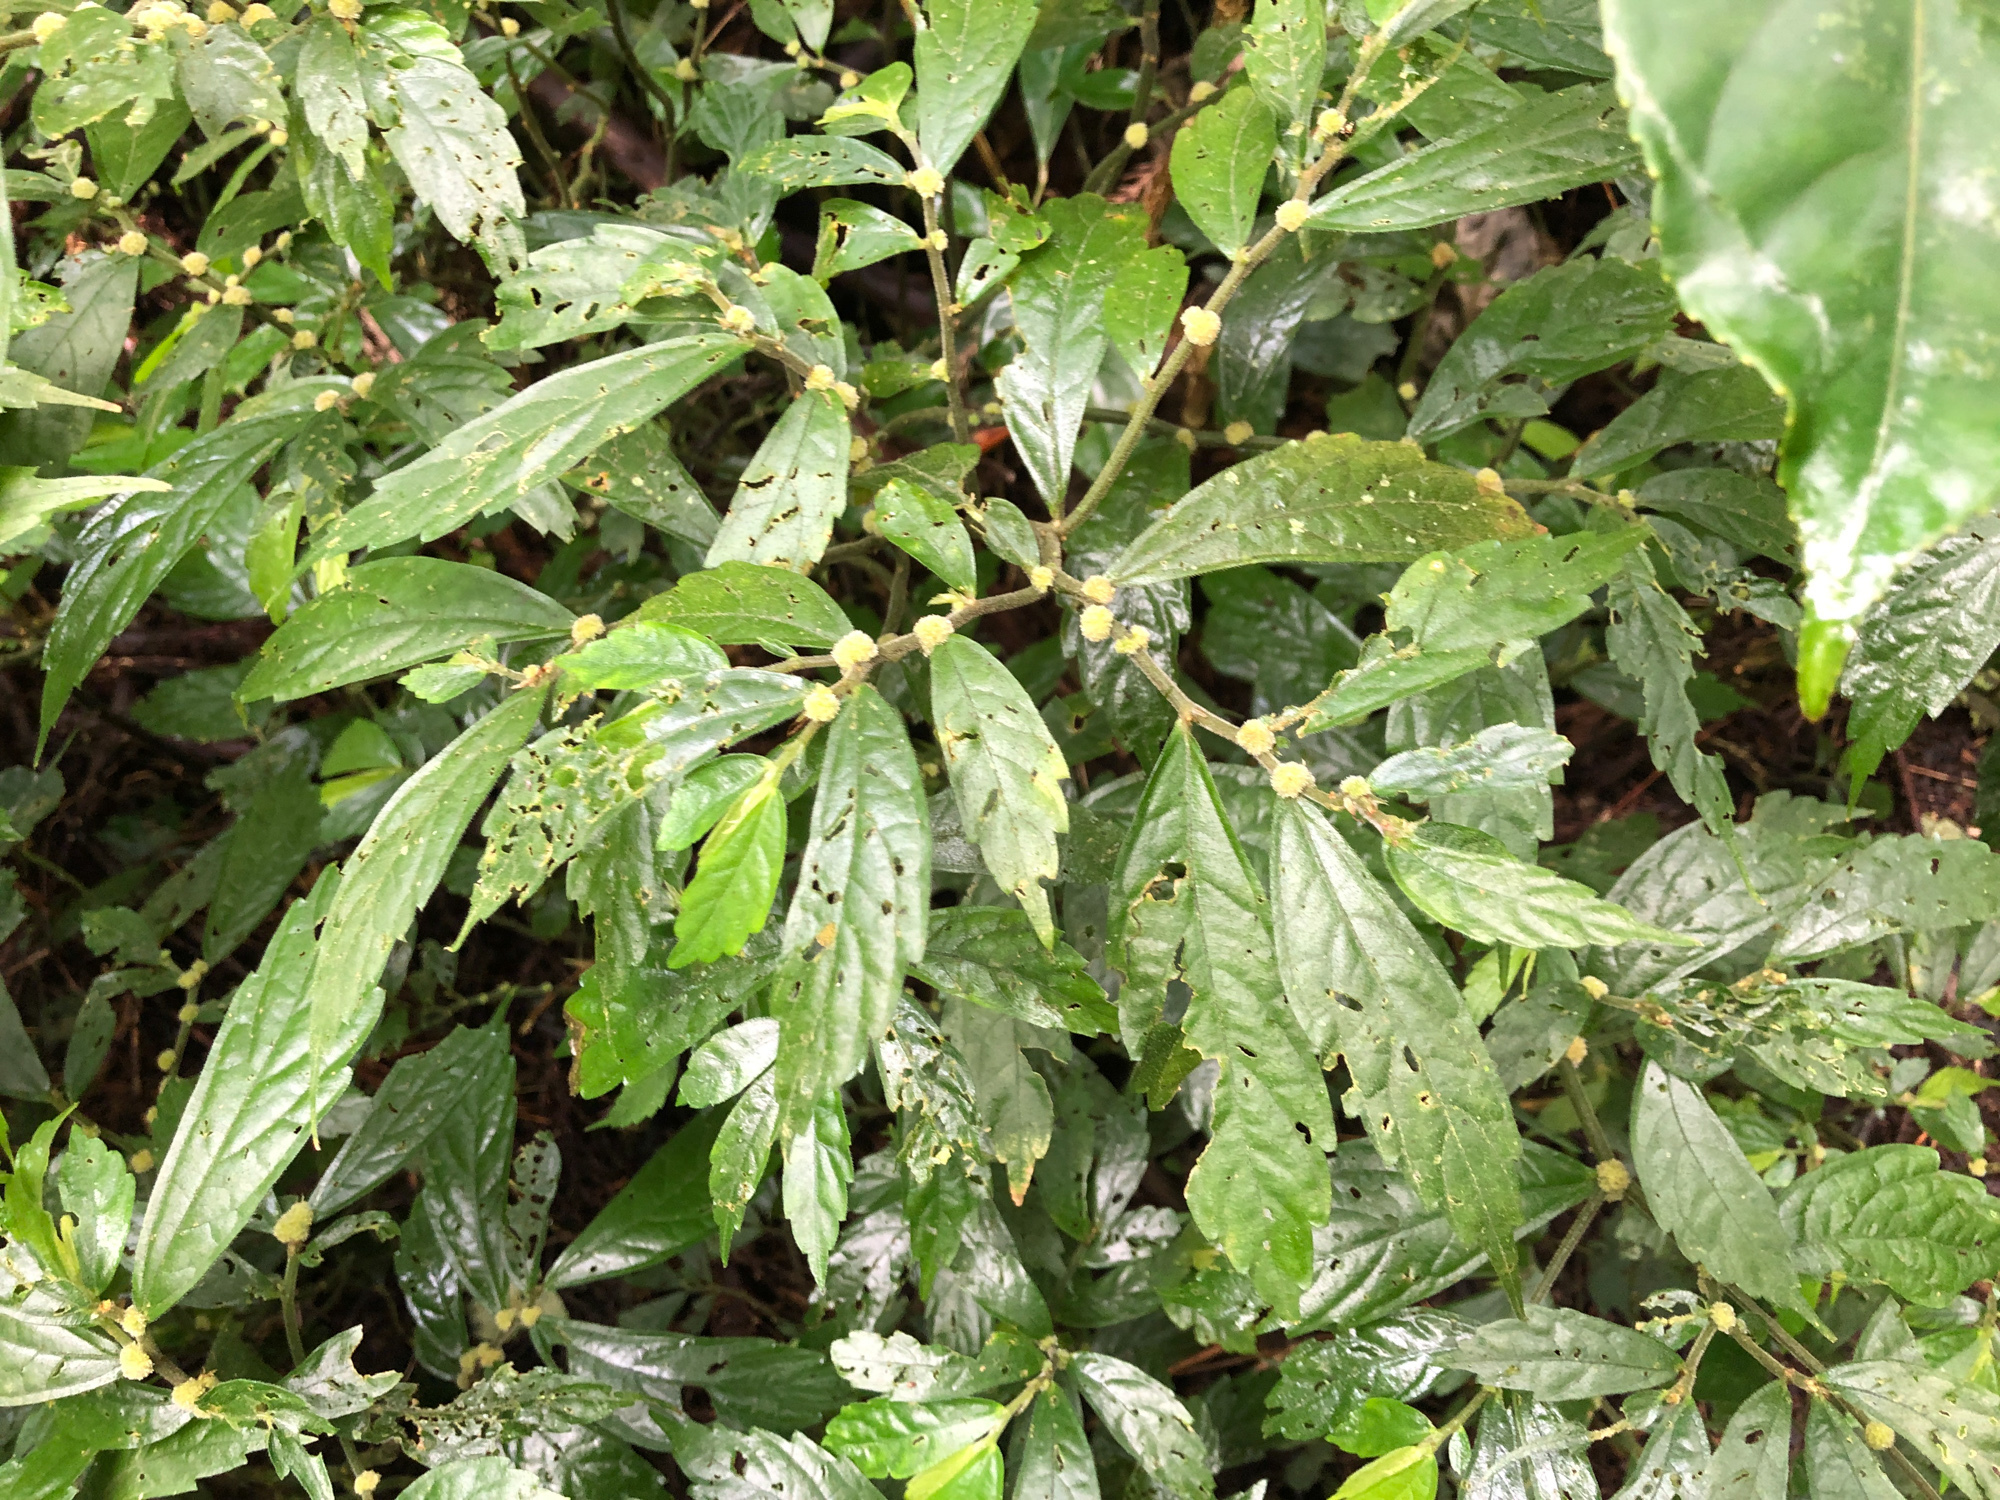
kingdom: Plantae
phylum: Tracheophyta
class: Magnoliopsida
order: Rosales
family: Urticaceae
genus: Elatostema
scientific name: Elatostema lineolatum
